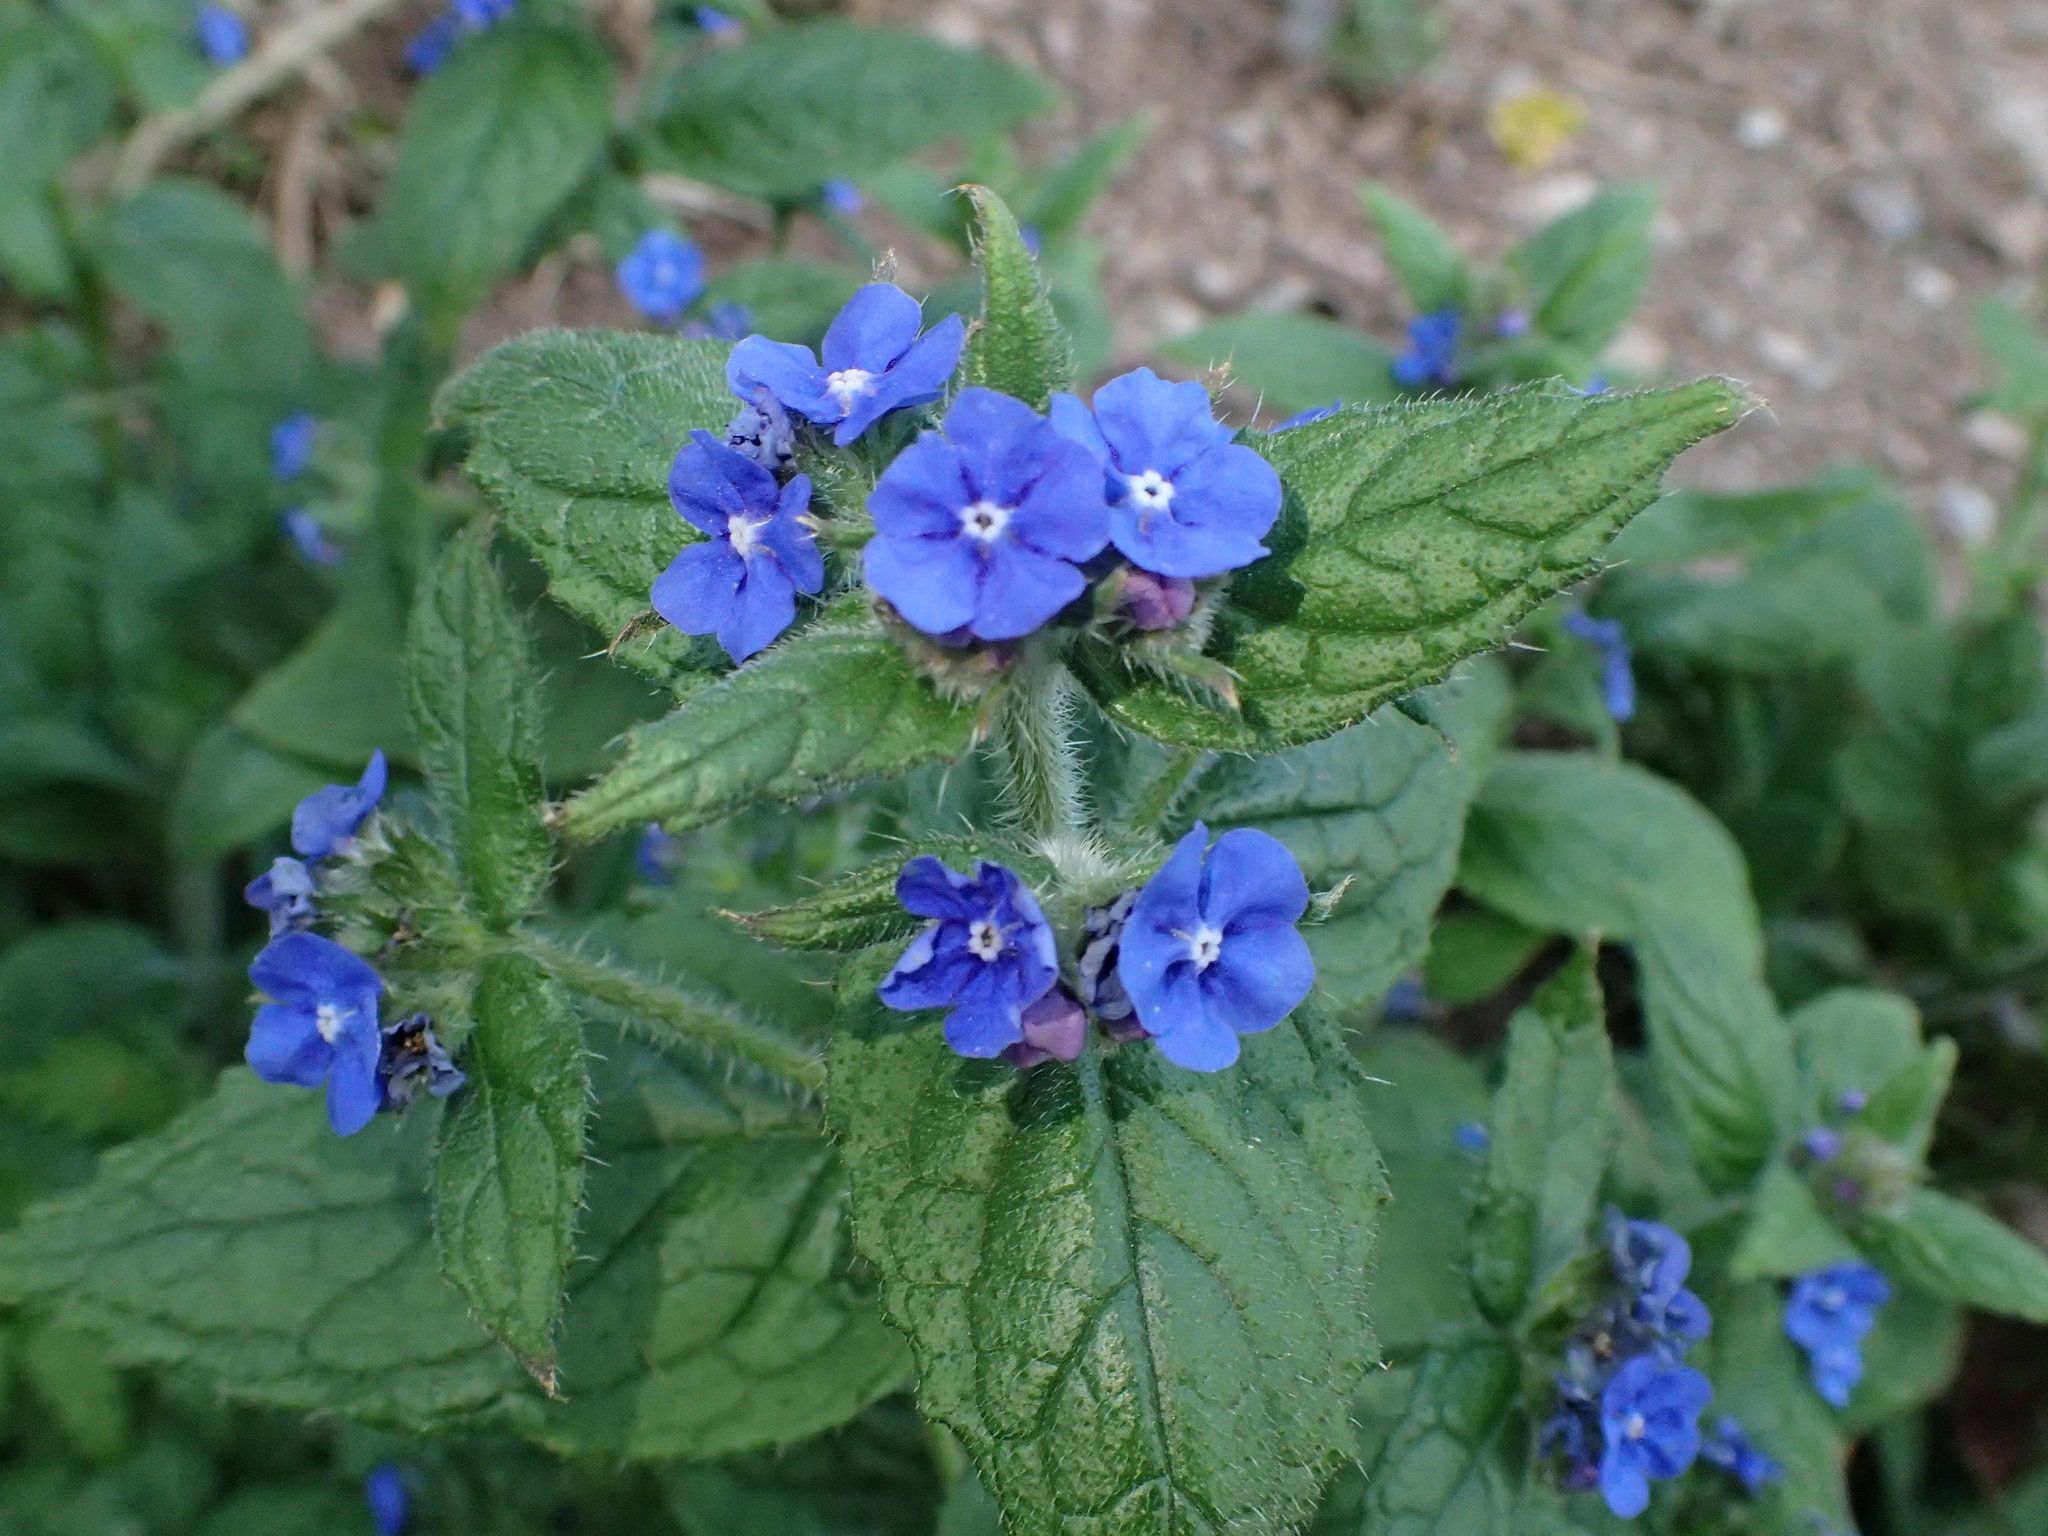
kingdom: Plantae
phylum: Tracheophyta
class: Magnoliopsida
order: Boraginales
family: Boraginaceae
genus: Pentaglottis
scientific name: Pentaglottis sempervirens
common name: Green alkanet
